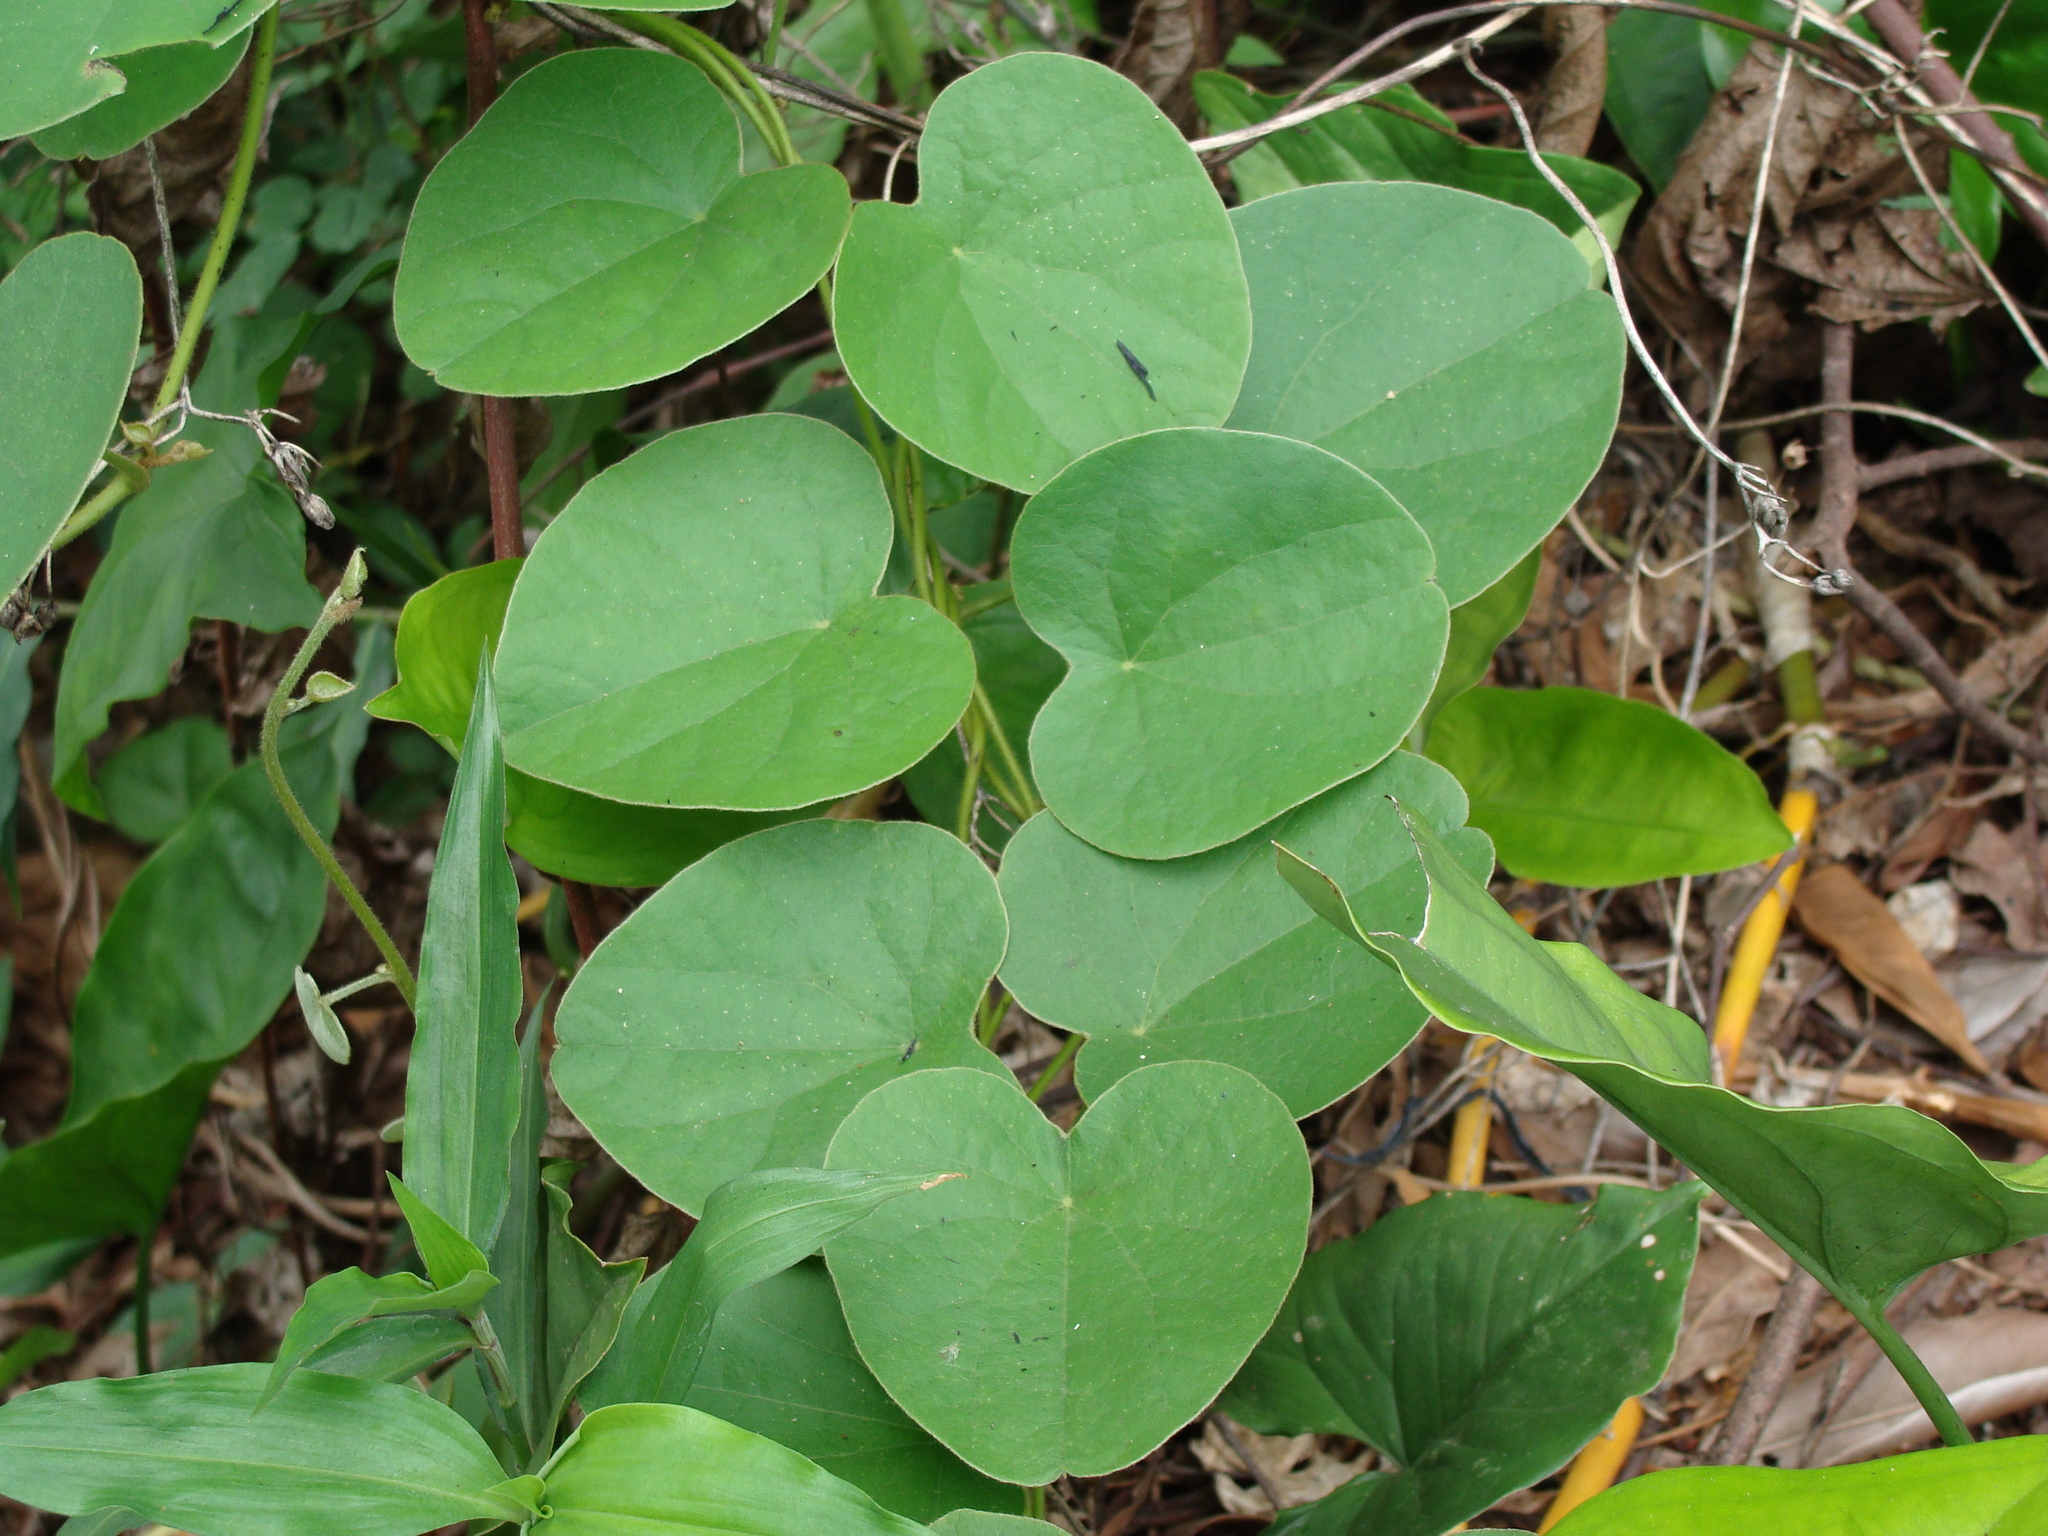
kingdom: Plantae
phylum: Tracheophyta
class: Magnoliopsida
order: Ranunculales
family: Menispermaceae
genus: Cissampelos
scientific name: Cissampelos pareira
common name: Velvetleaf
